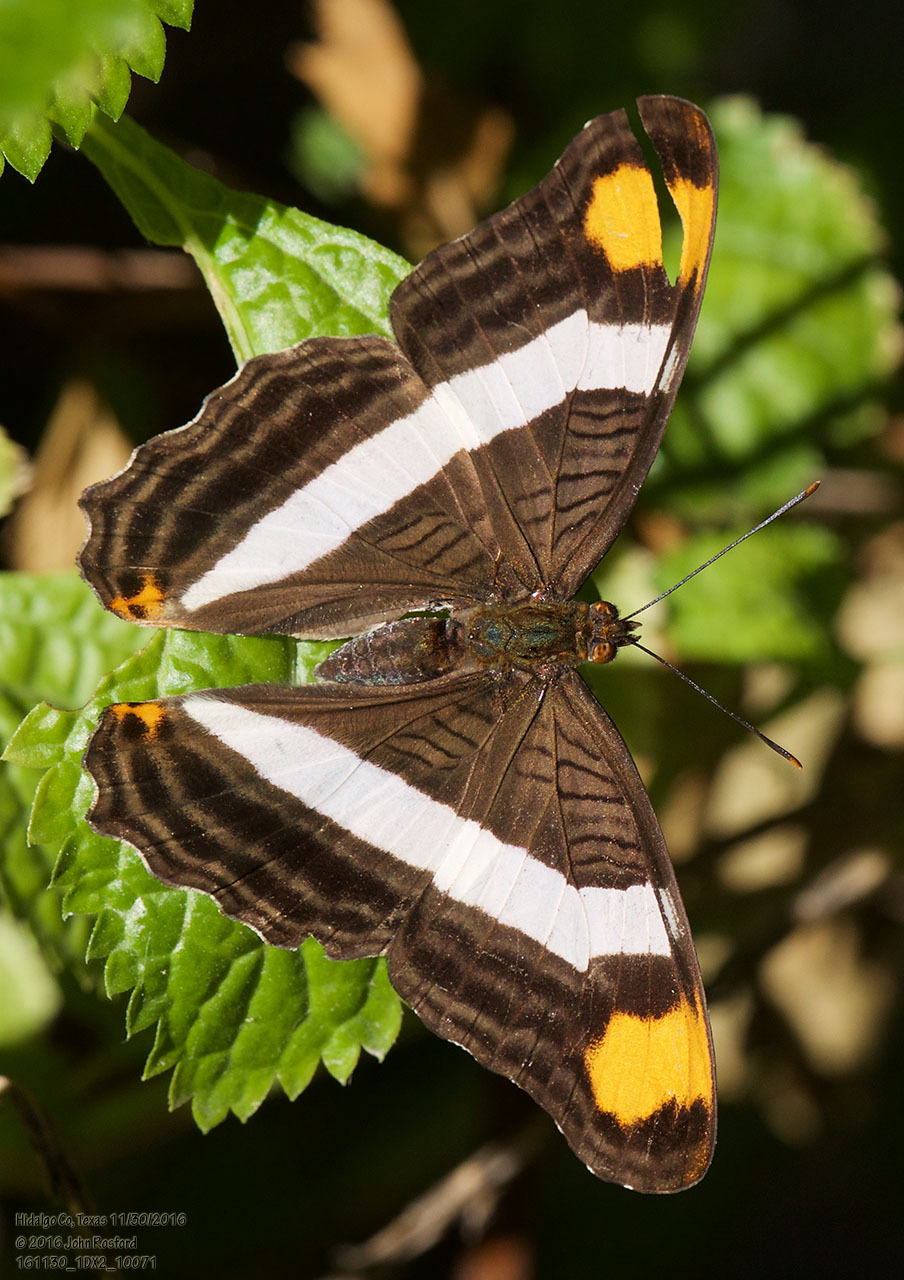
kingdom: Animalia
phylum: Arthropoda
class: Insecta
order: Lepidoptera
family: Nymphalidae
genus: Limenitis
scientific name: Limenitis fessonia
